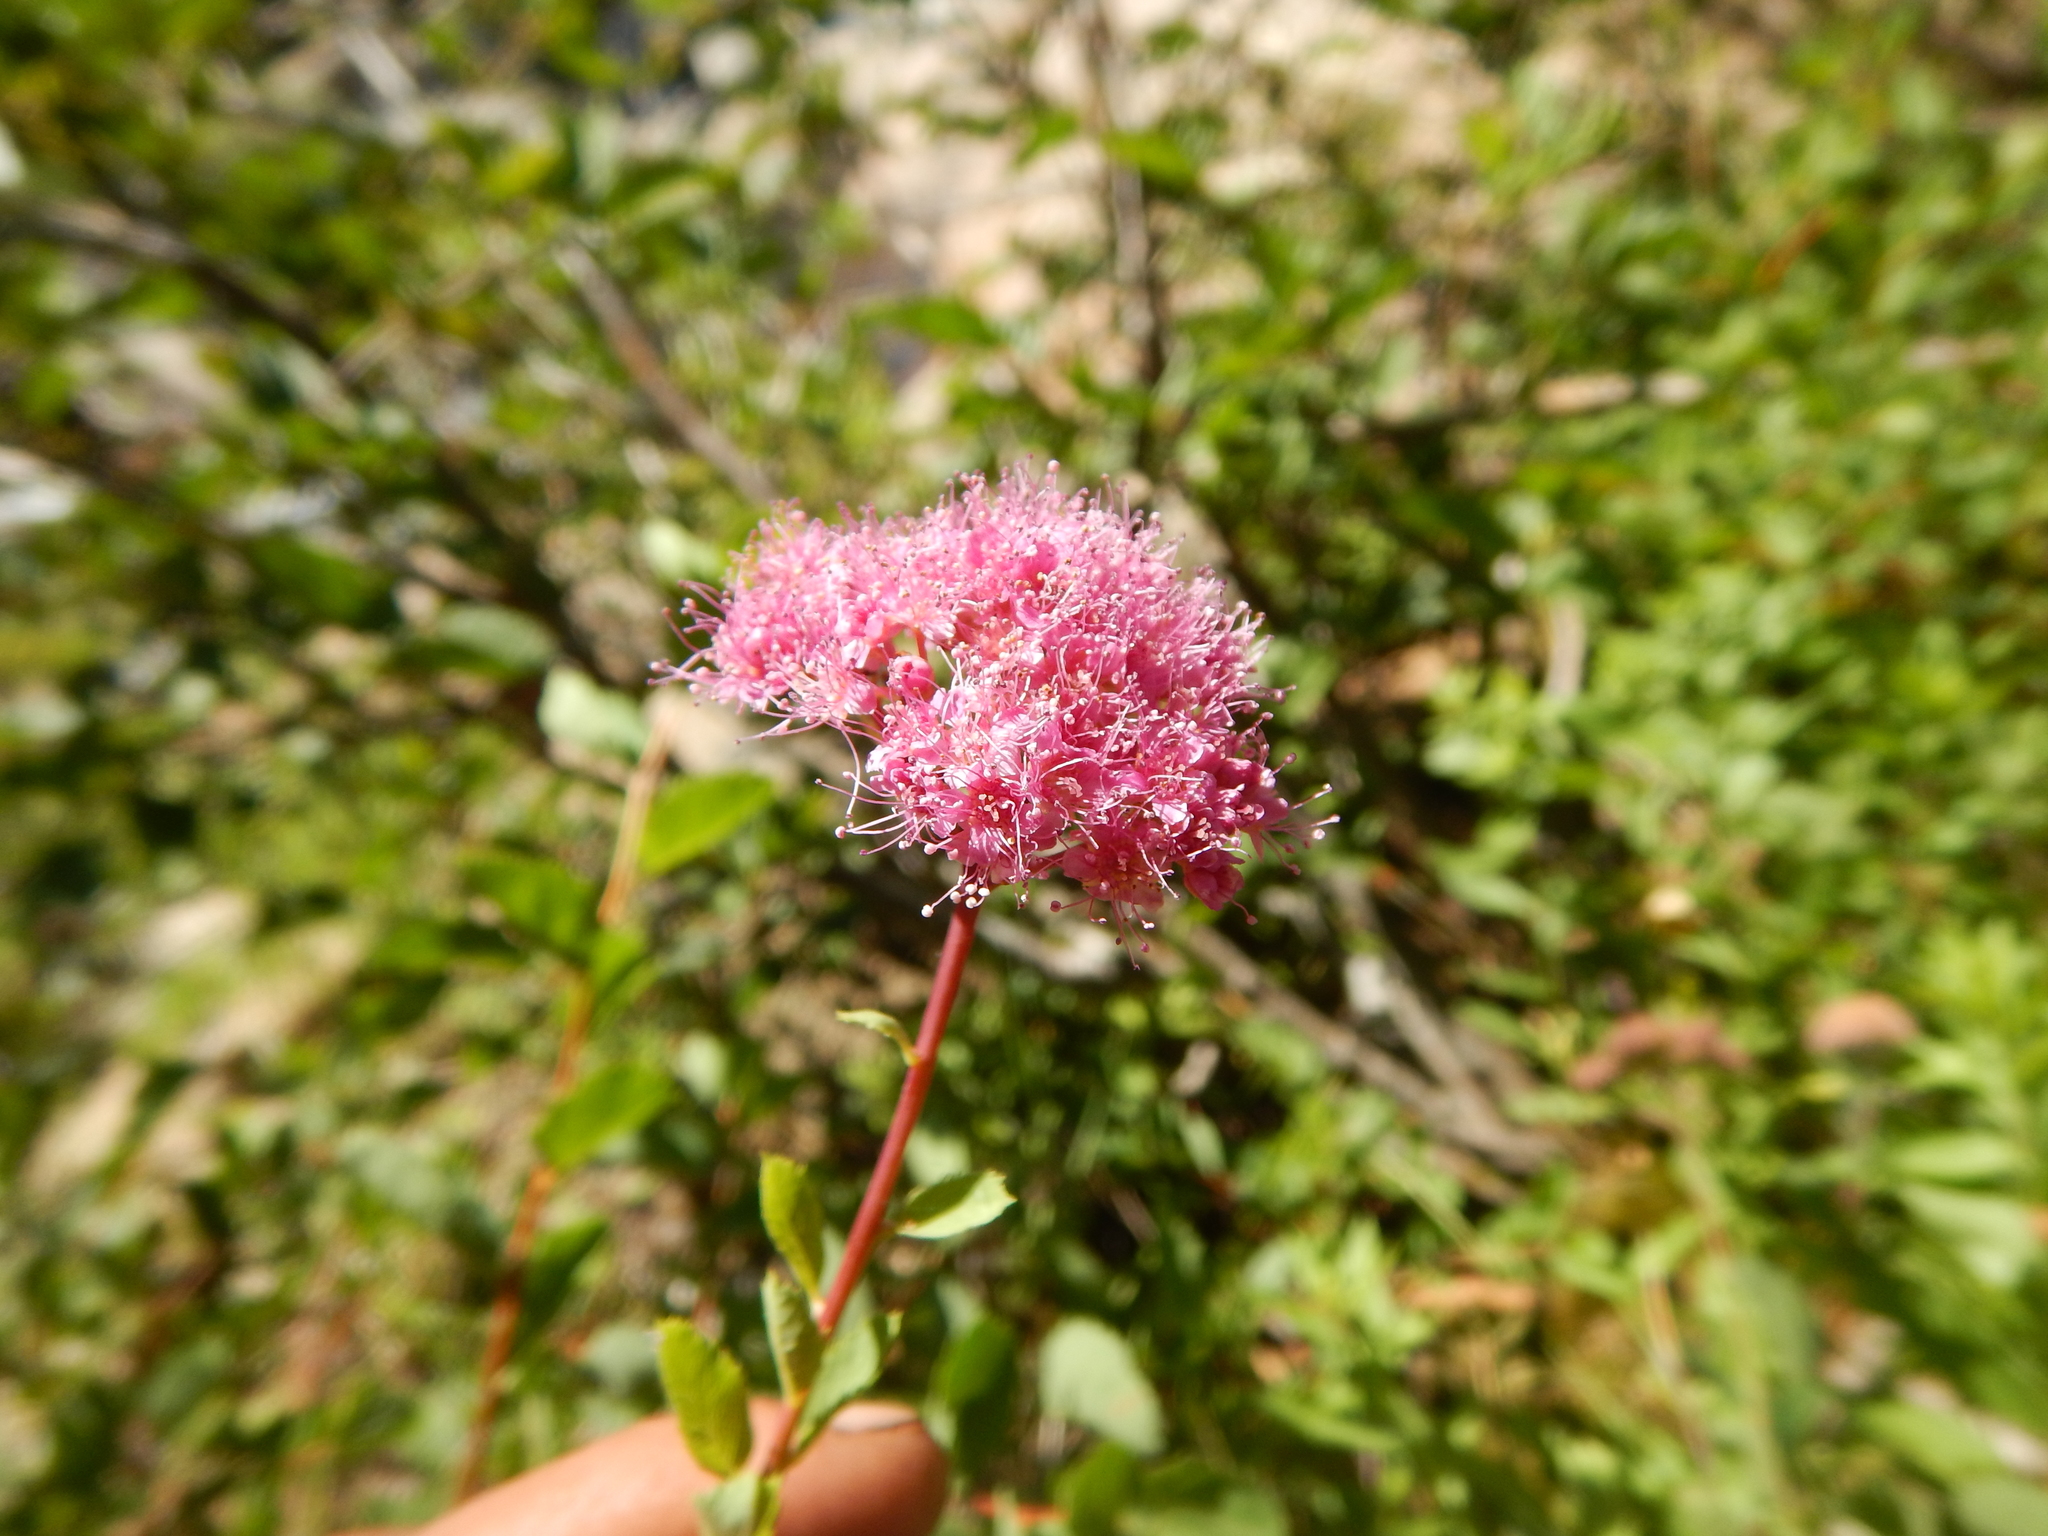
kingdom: Plantae
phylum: Tracheophyta
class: Magnoliopsida
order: Rosales
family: Rosaceae
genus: Spiraea
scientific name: Spiraea splendens
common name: Subalpine meadowsweet
